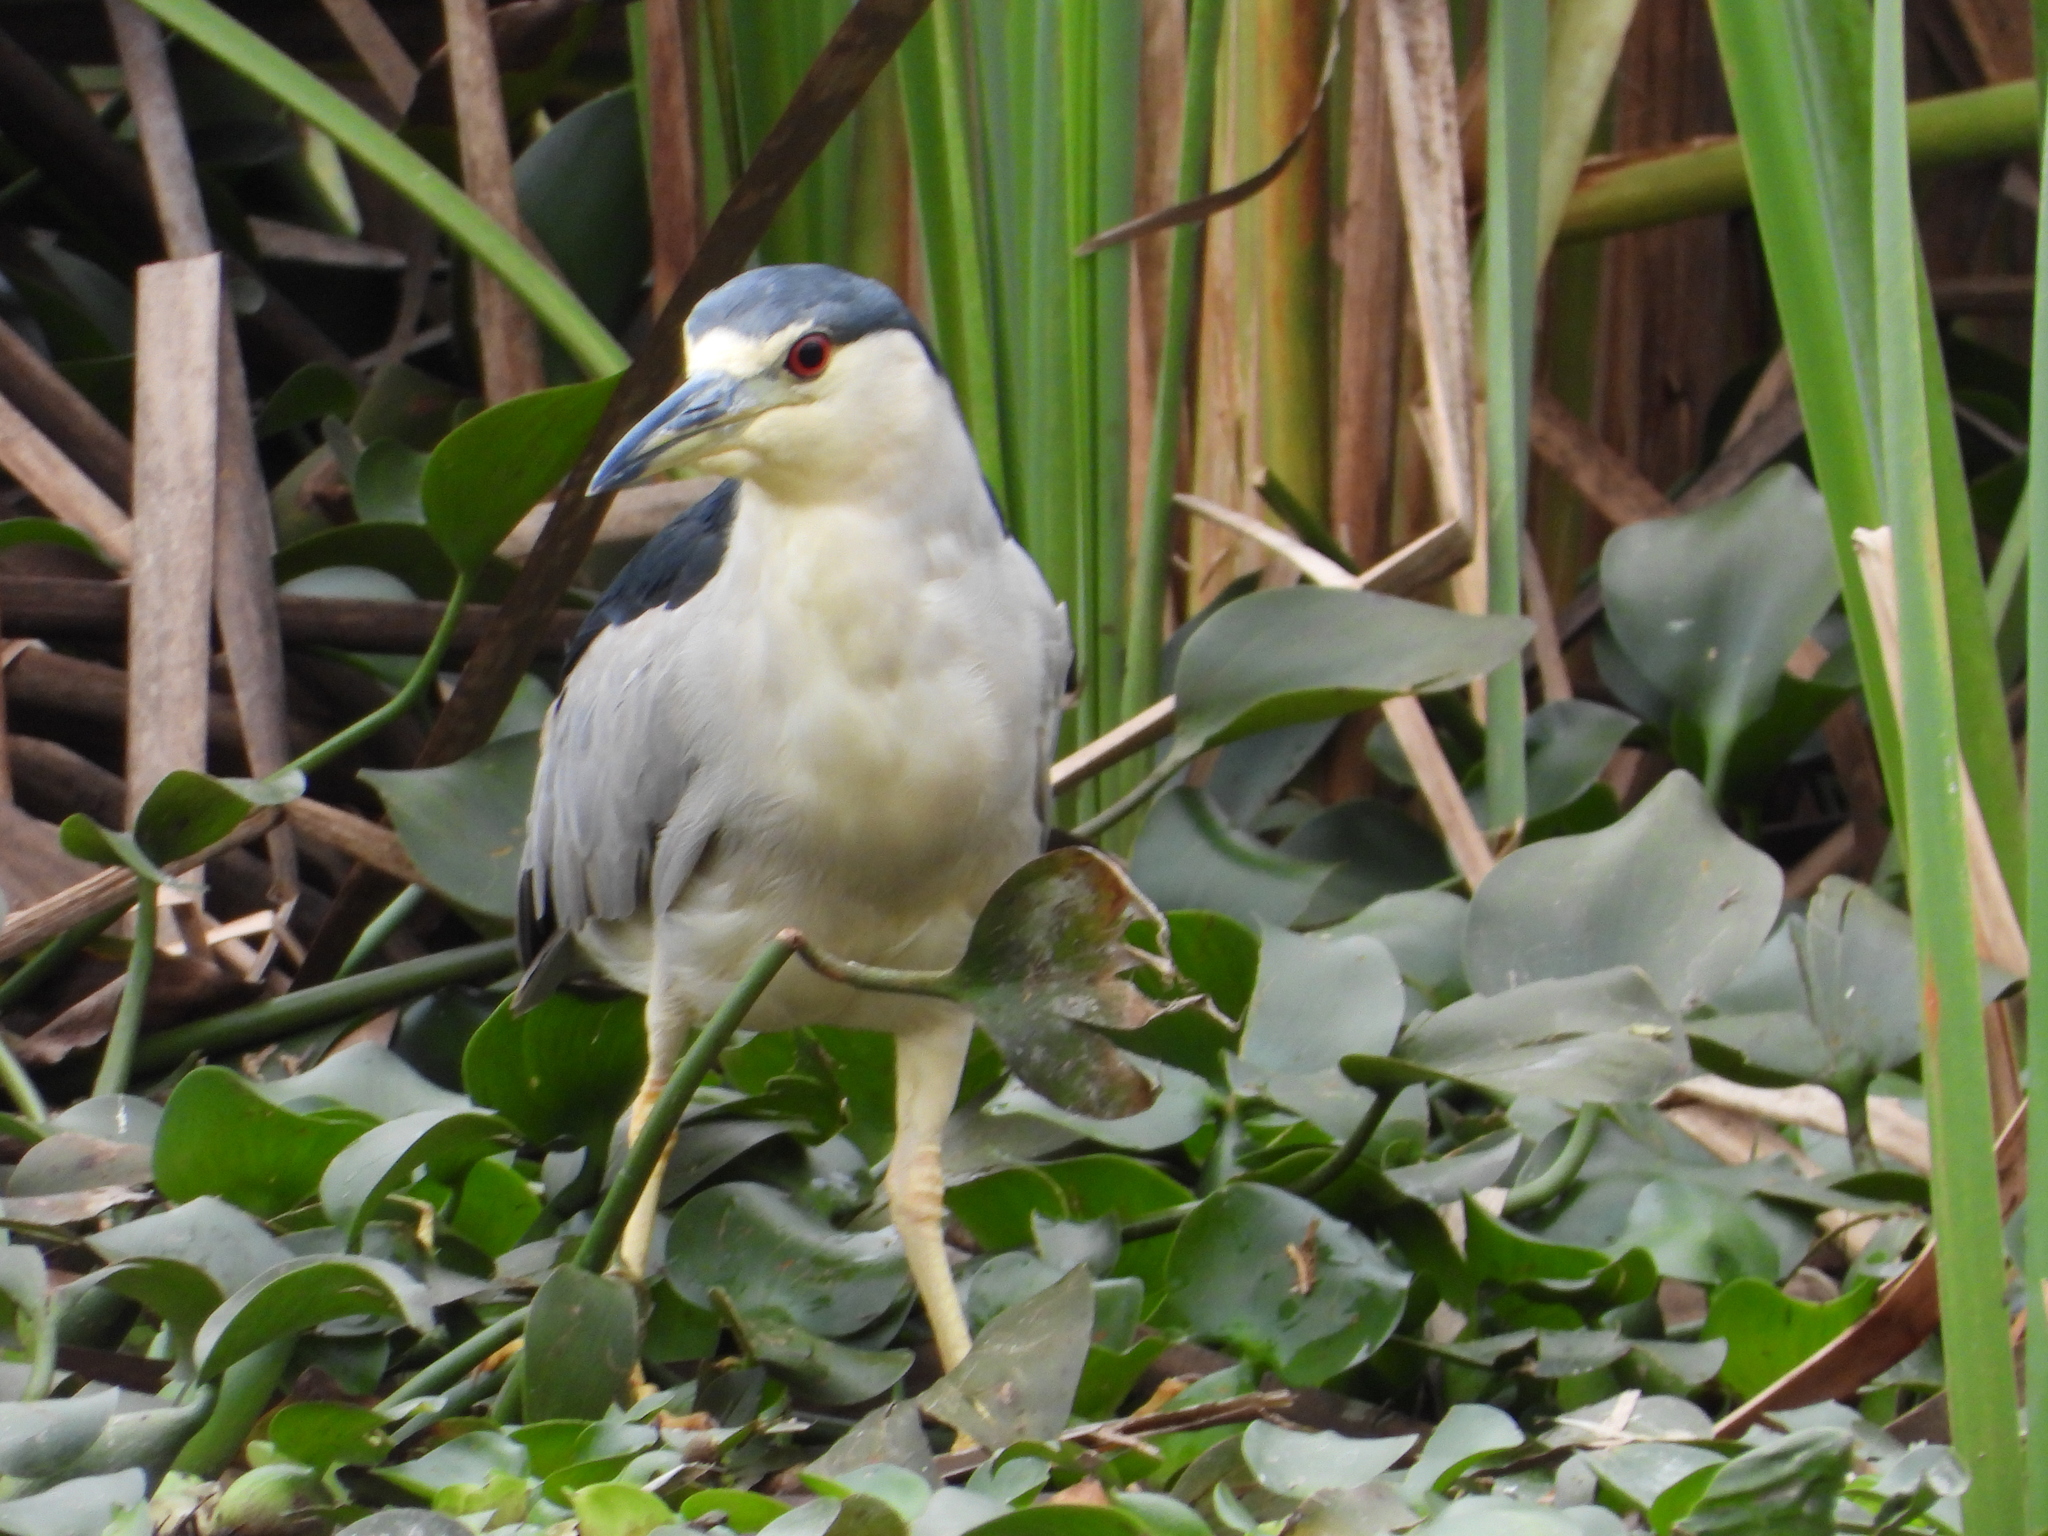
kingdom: Animalia
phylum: Chordata
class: Aves
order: Pelecaniformes
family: Ardeidae
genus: Nycticorax
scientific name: Nycticorax nycticorax
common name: Black-crowned night heron
